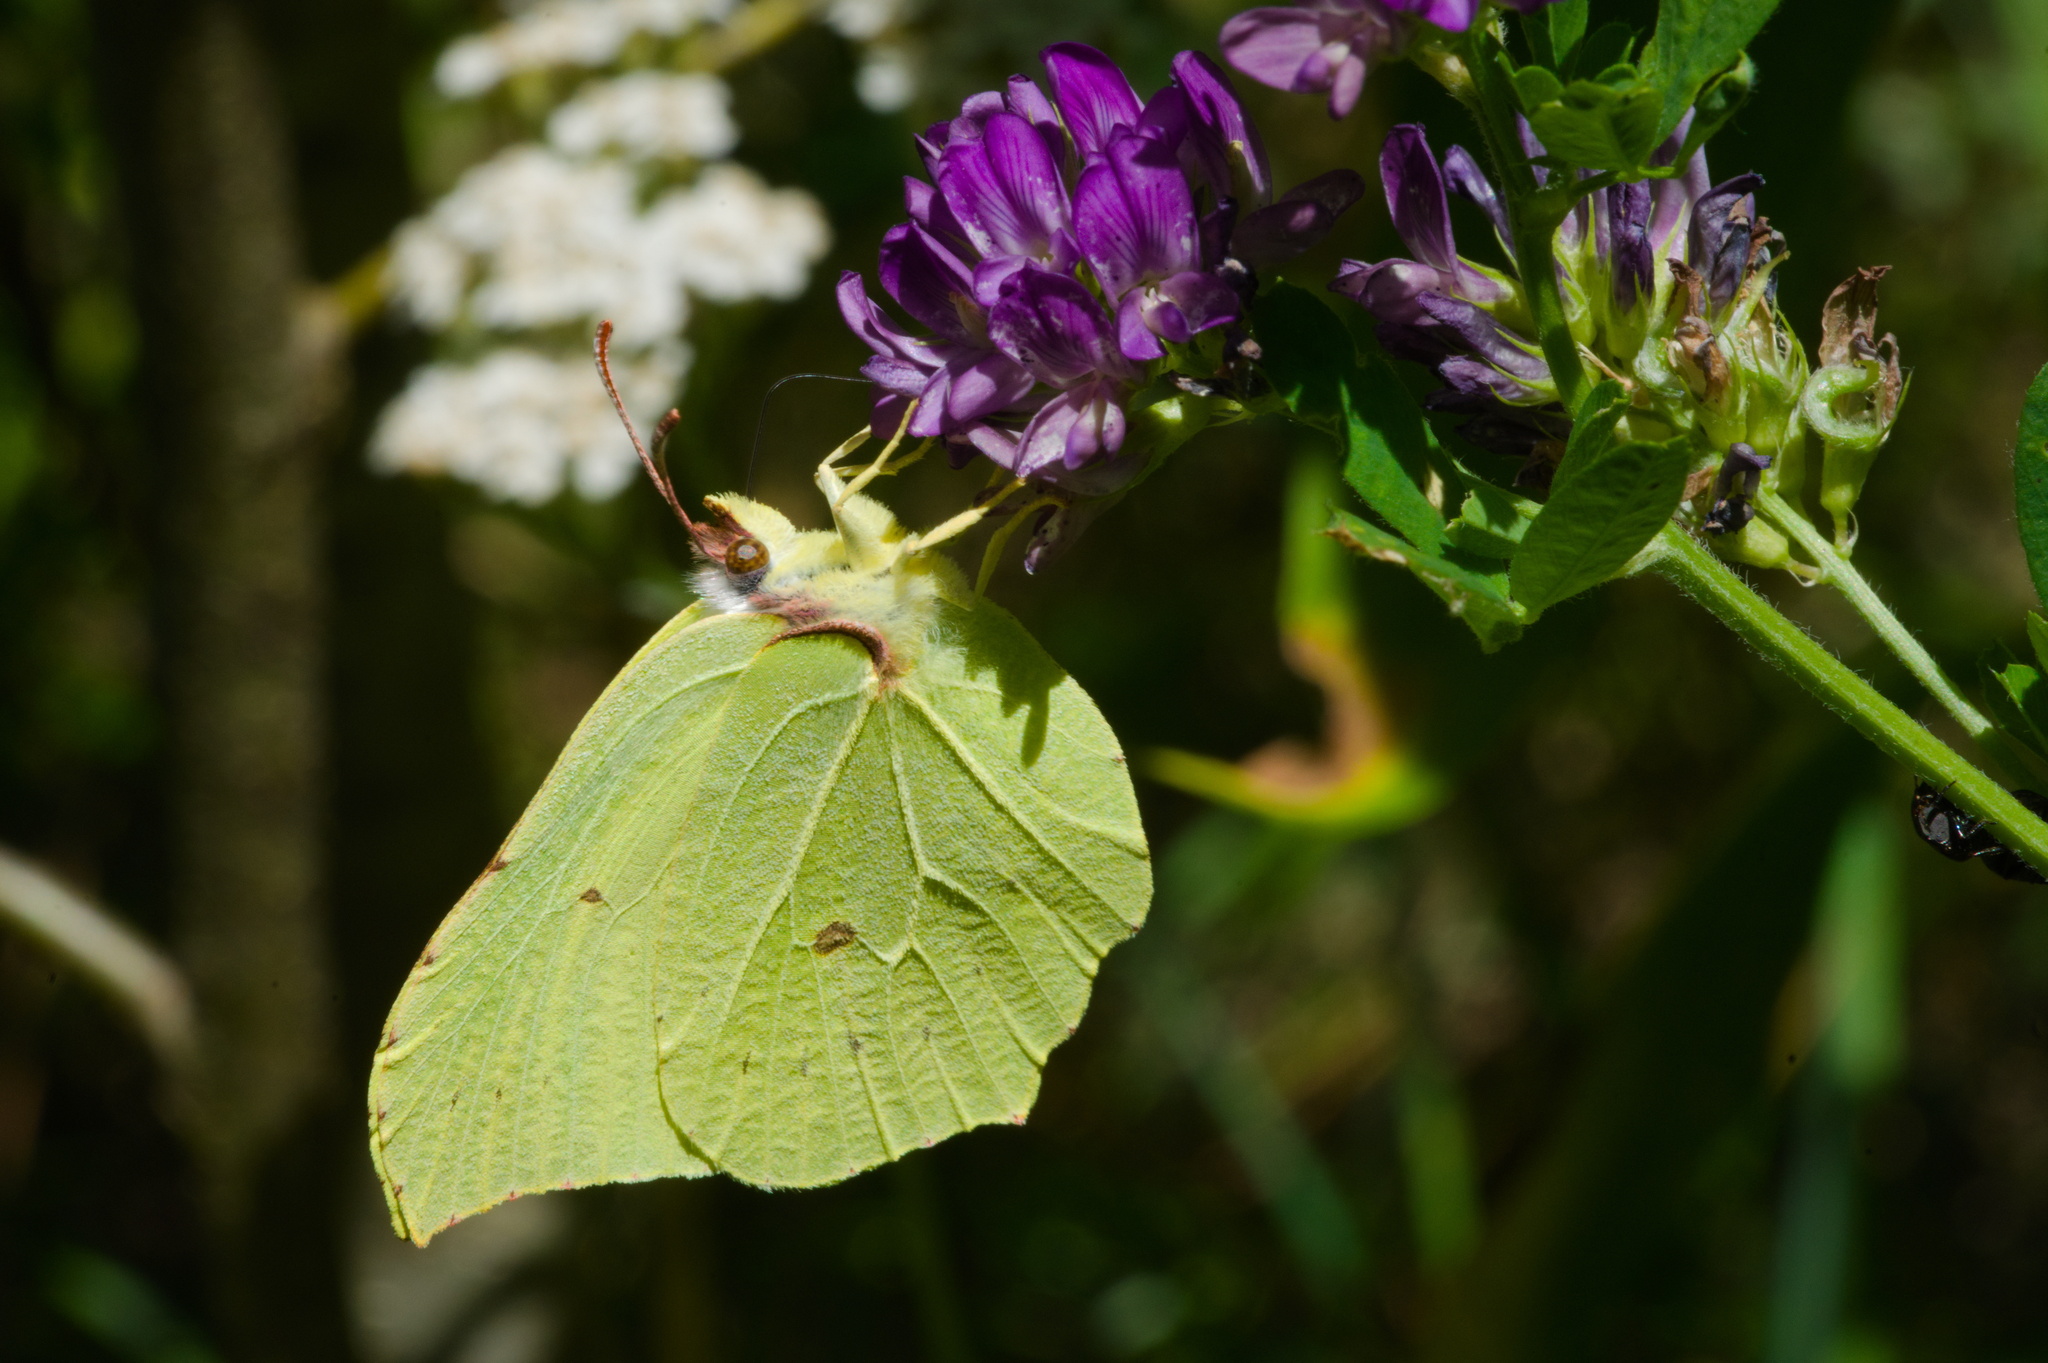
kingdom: Animalia
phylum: Arthropoda
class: Insecta
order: Lepidoptera
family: Pieridae
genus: Gonepteryx
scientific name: Gonepteryx rhamni
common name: Brimstone
